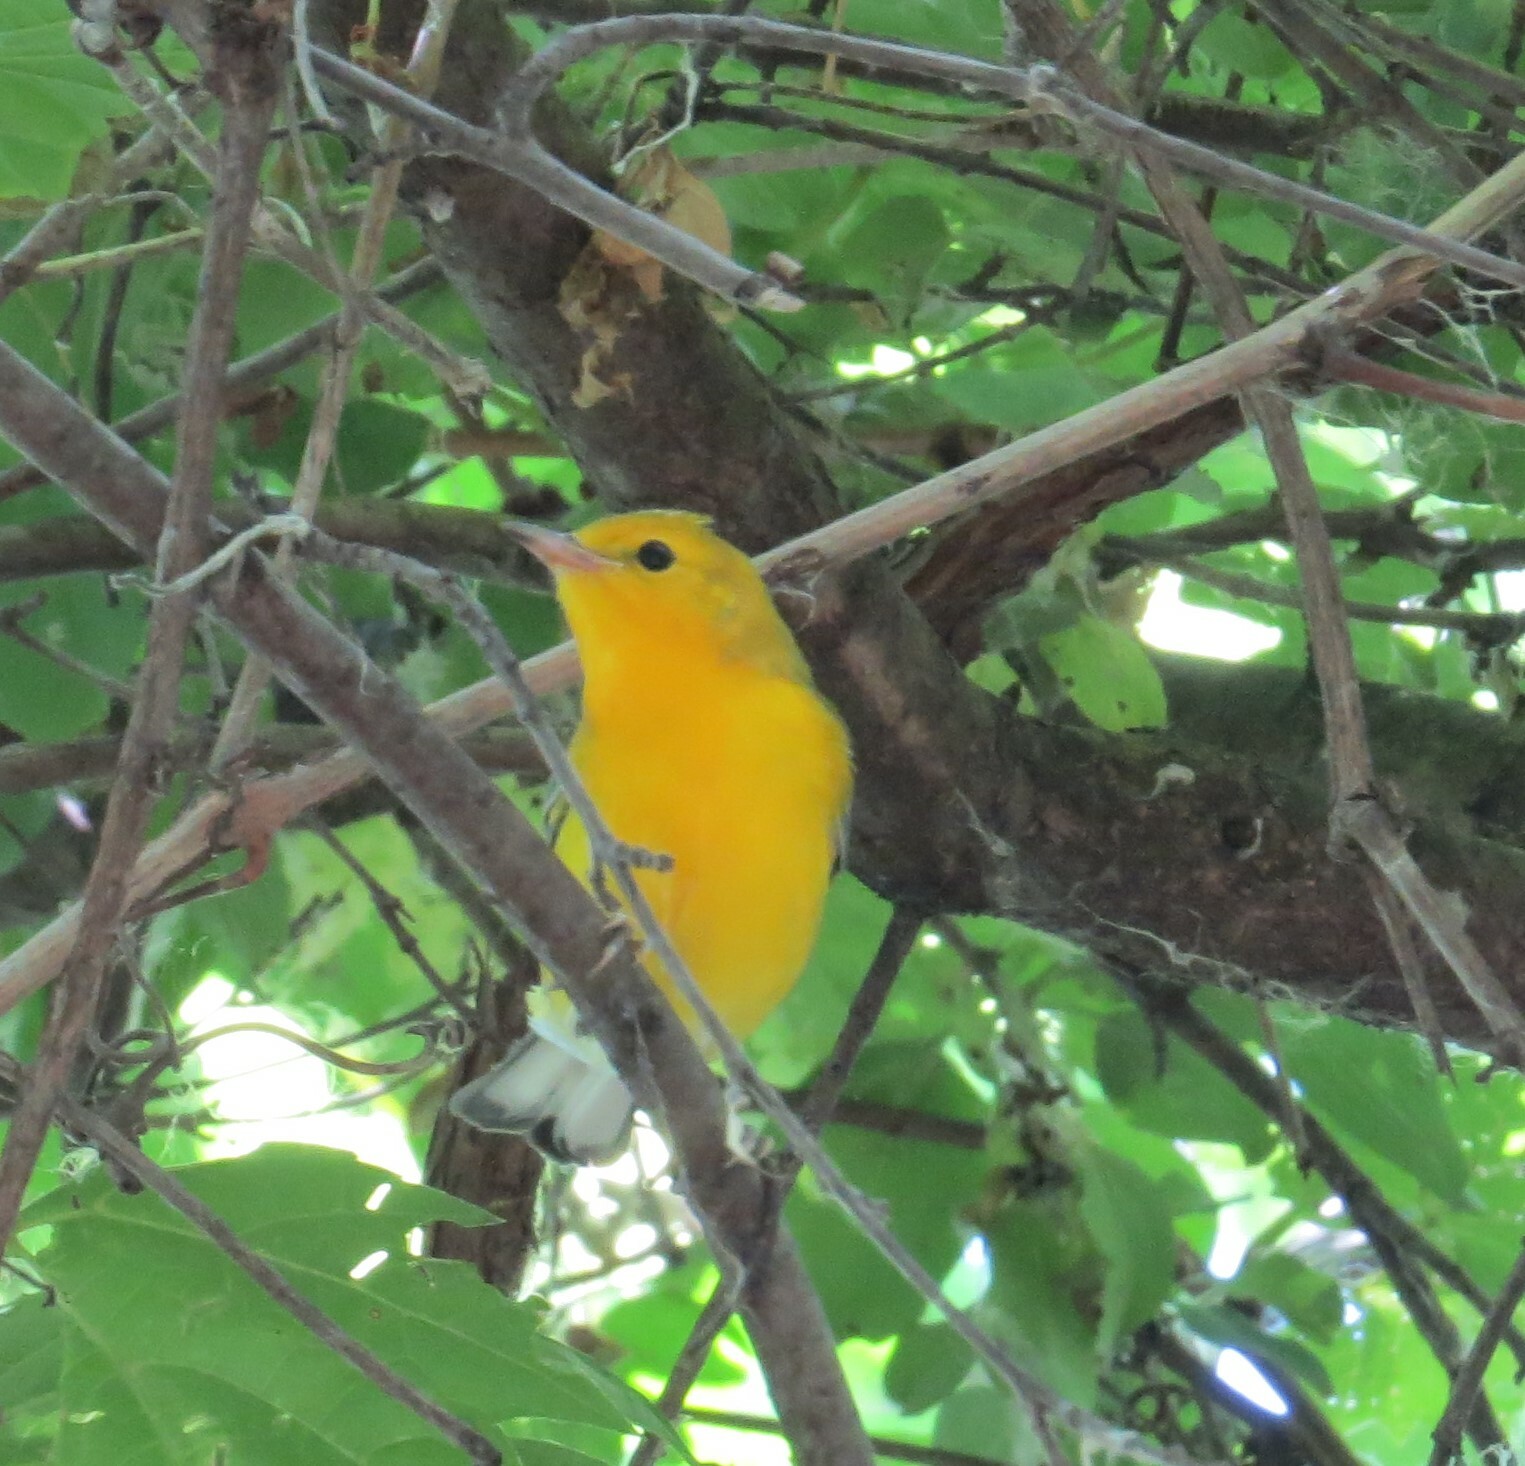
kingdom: Animalia
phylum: Chordata
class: Aves
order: Passeriformes
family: Parulidae
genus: Protonotaria
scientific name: Protonotaria citrea
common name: Prothonotary warbler
